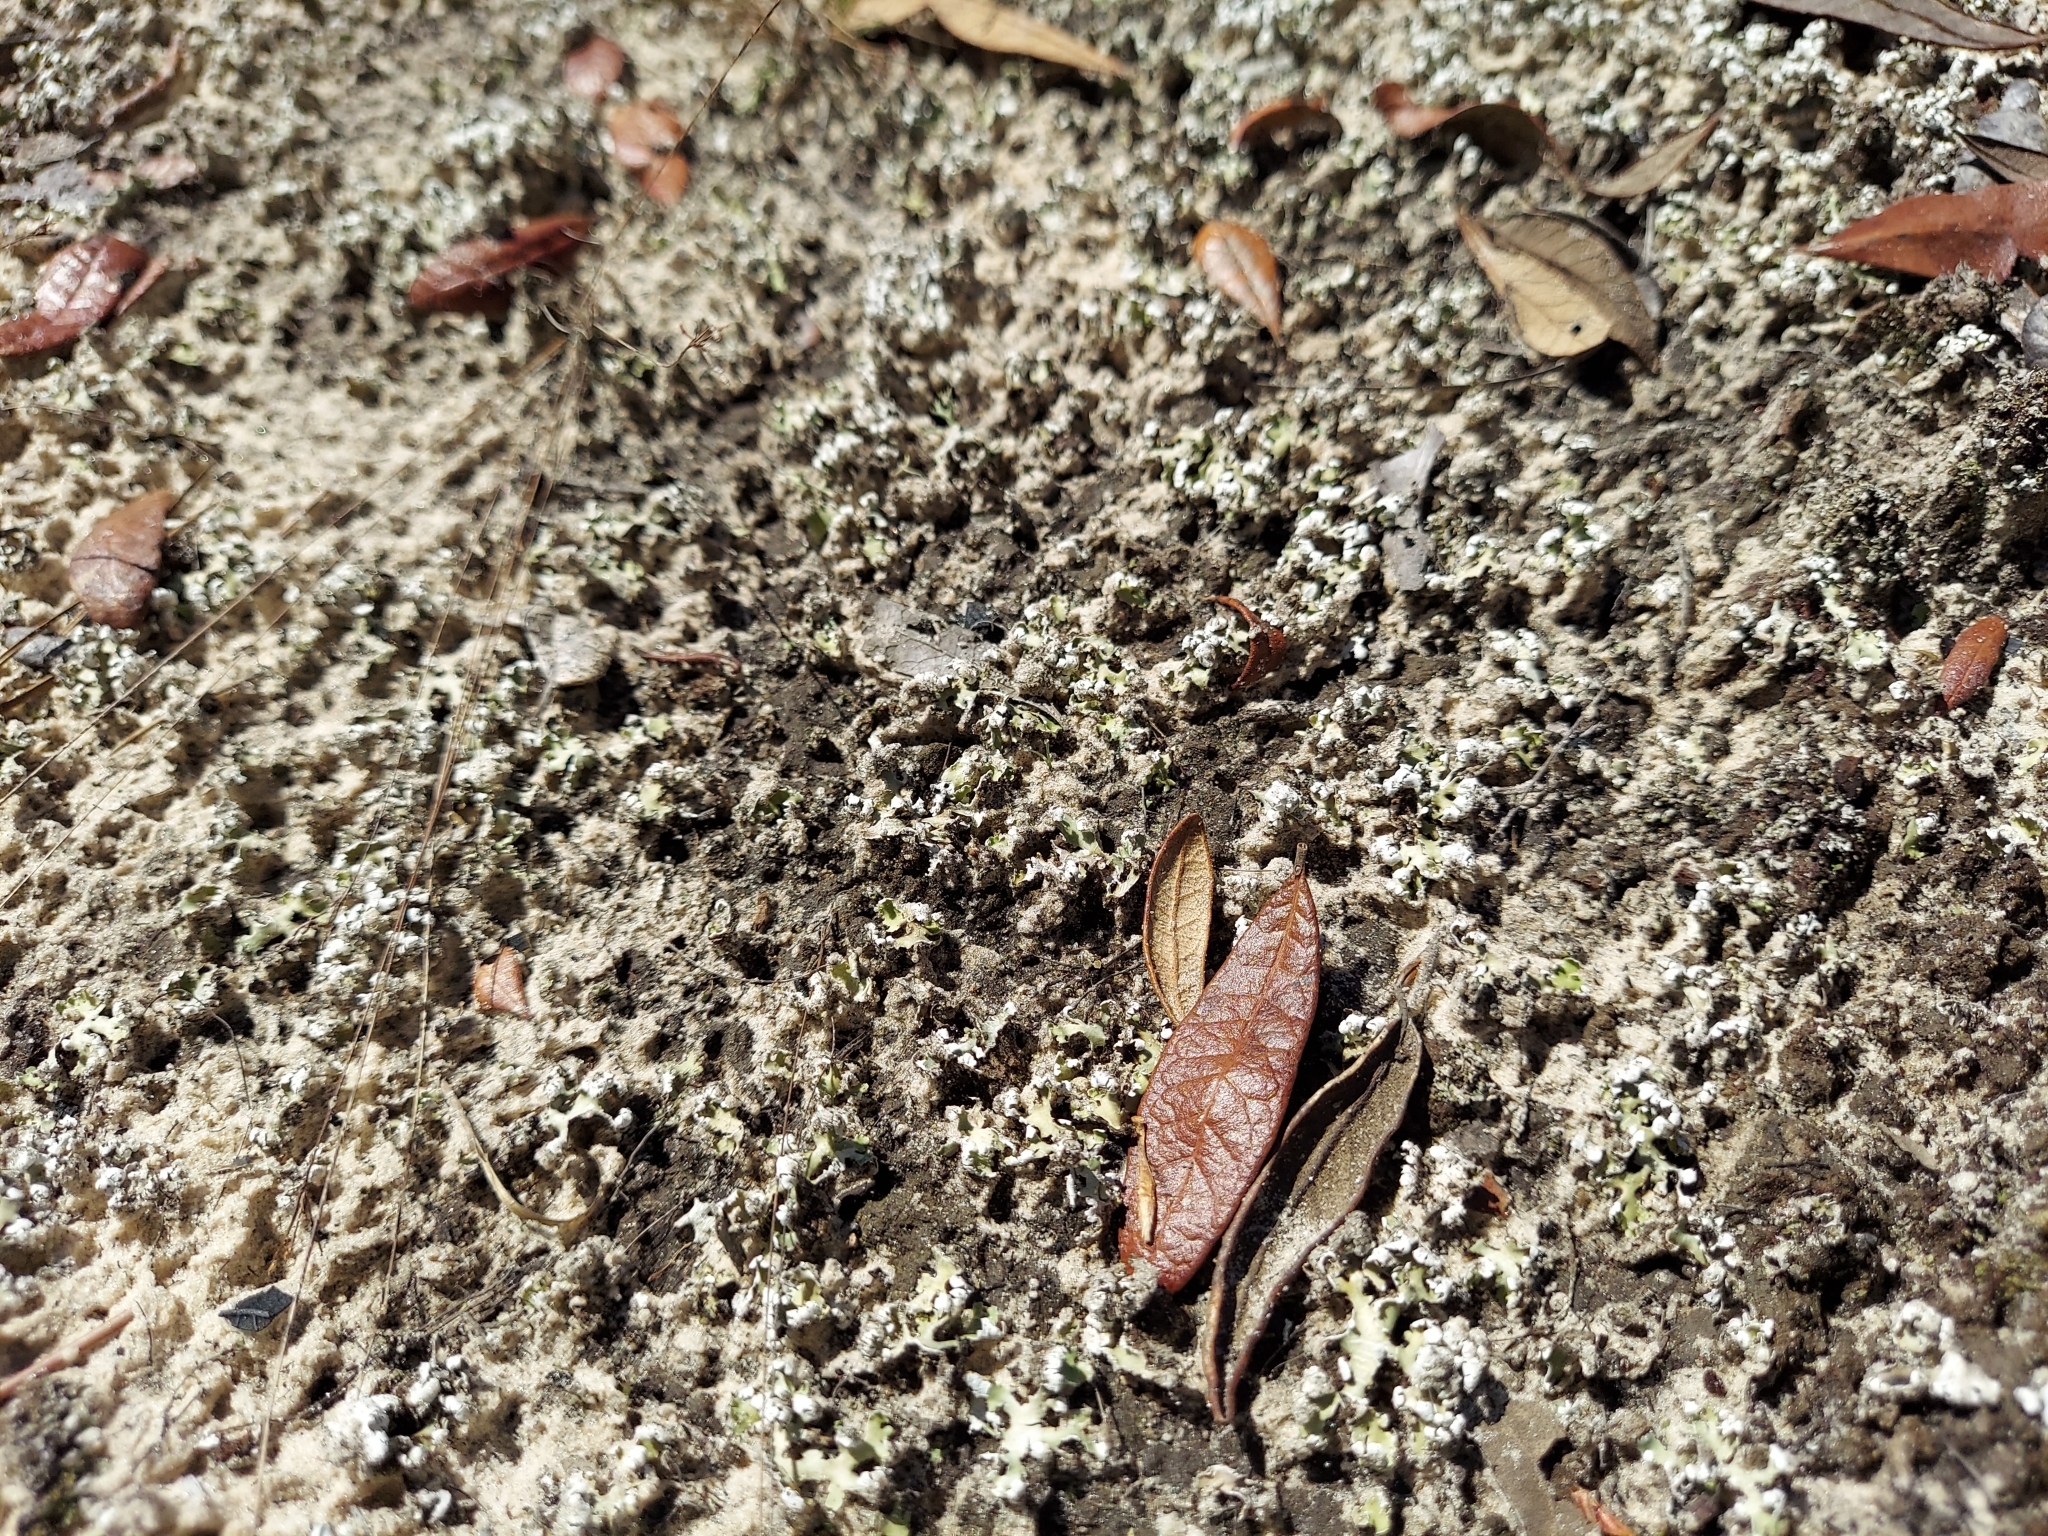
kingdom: Fungi
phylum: Ascomycota
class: Lecanoromycetes
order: Lecanorales
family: Cladoniaceae
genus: Cladonia
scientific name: Cladonia prostrata
